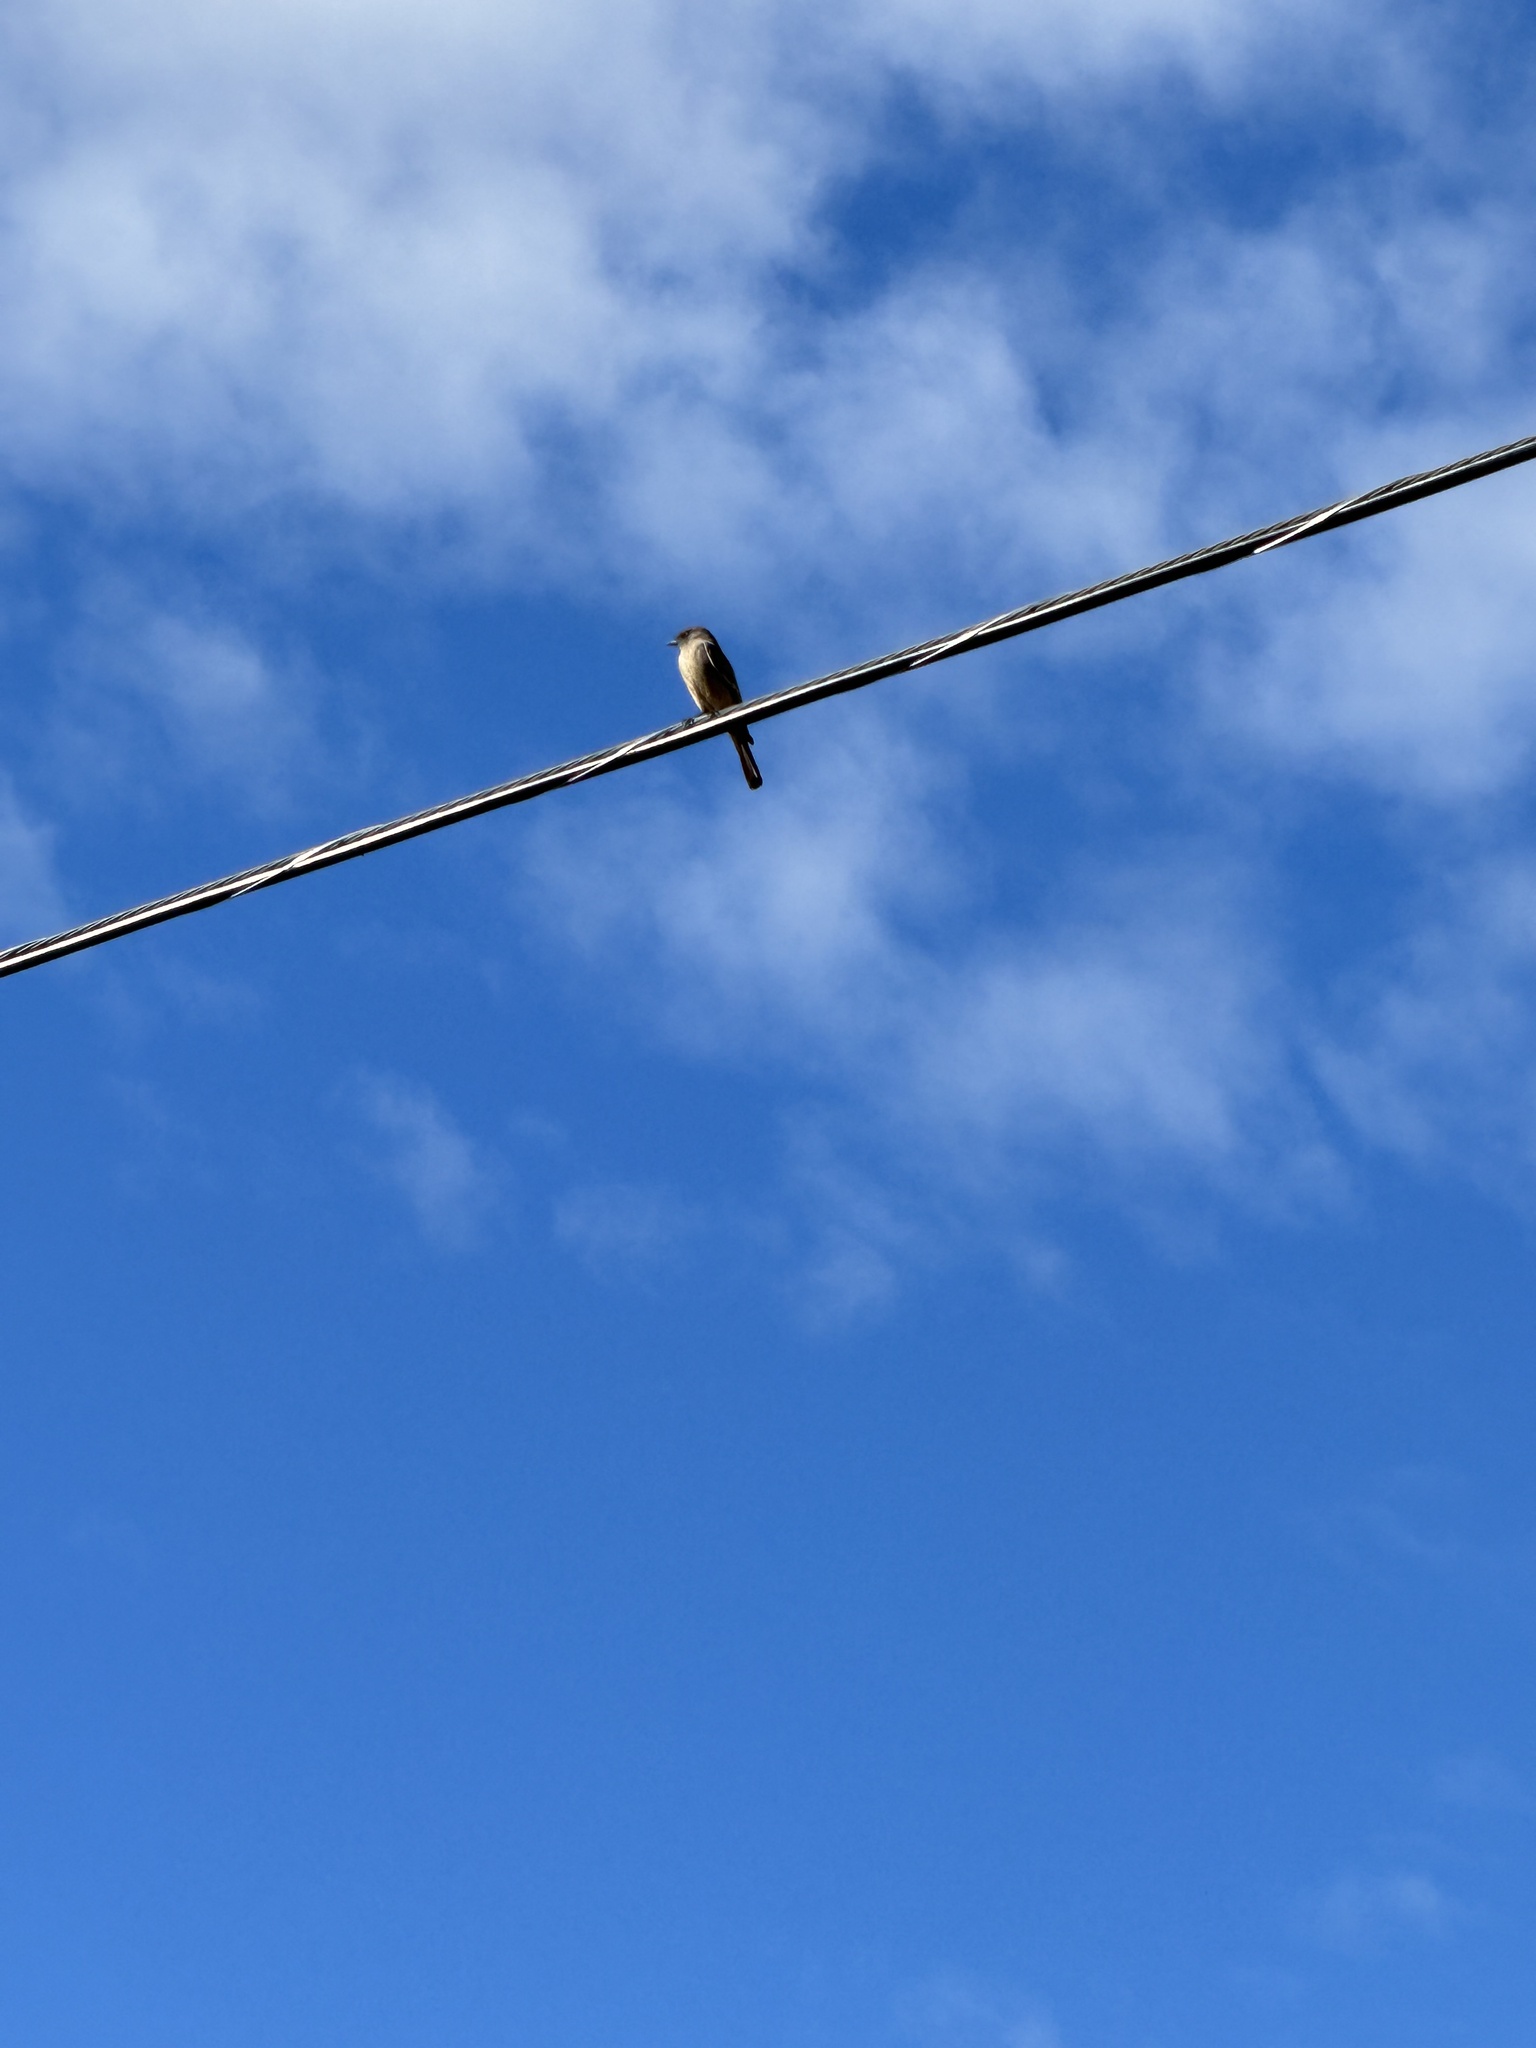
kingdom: Animalia
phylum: Chordata
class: Aves
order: Passeriformes
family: Tyrannidae
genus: Sayornis
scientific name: Sayornis saya
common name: Say's phoebe
